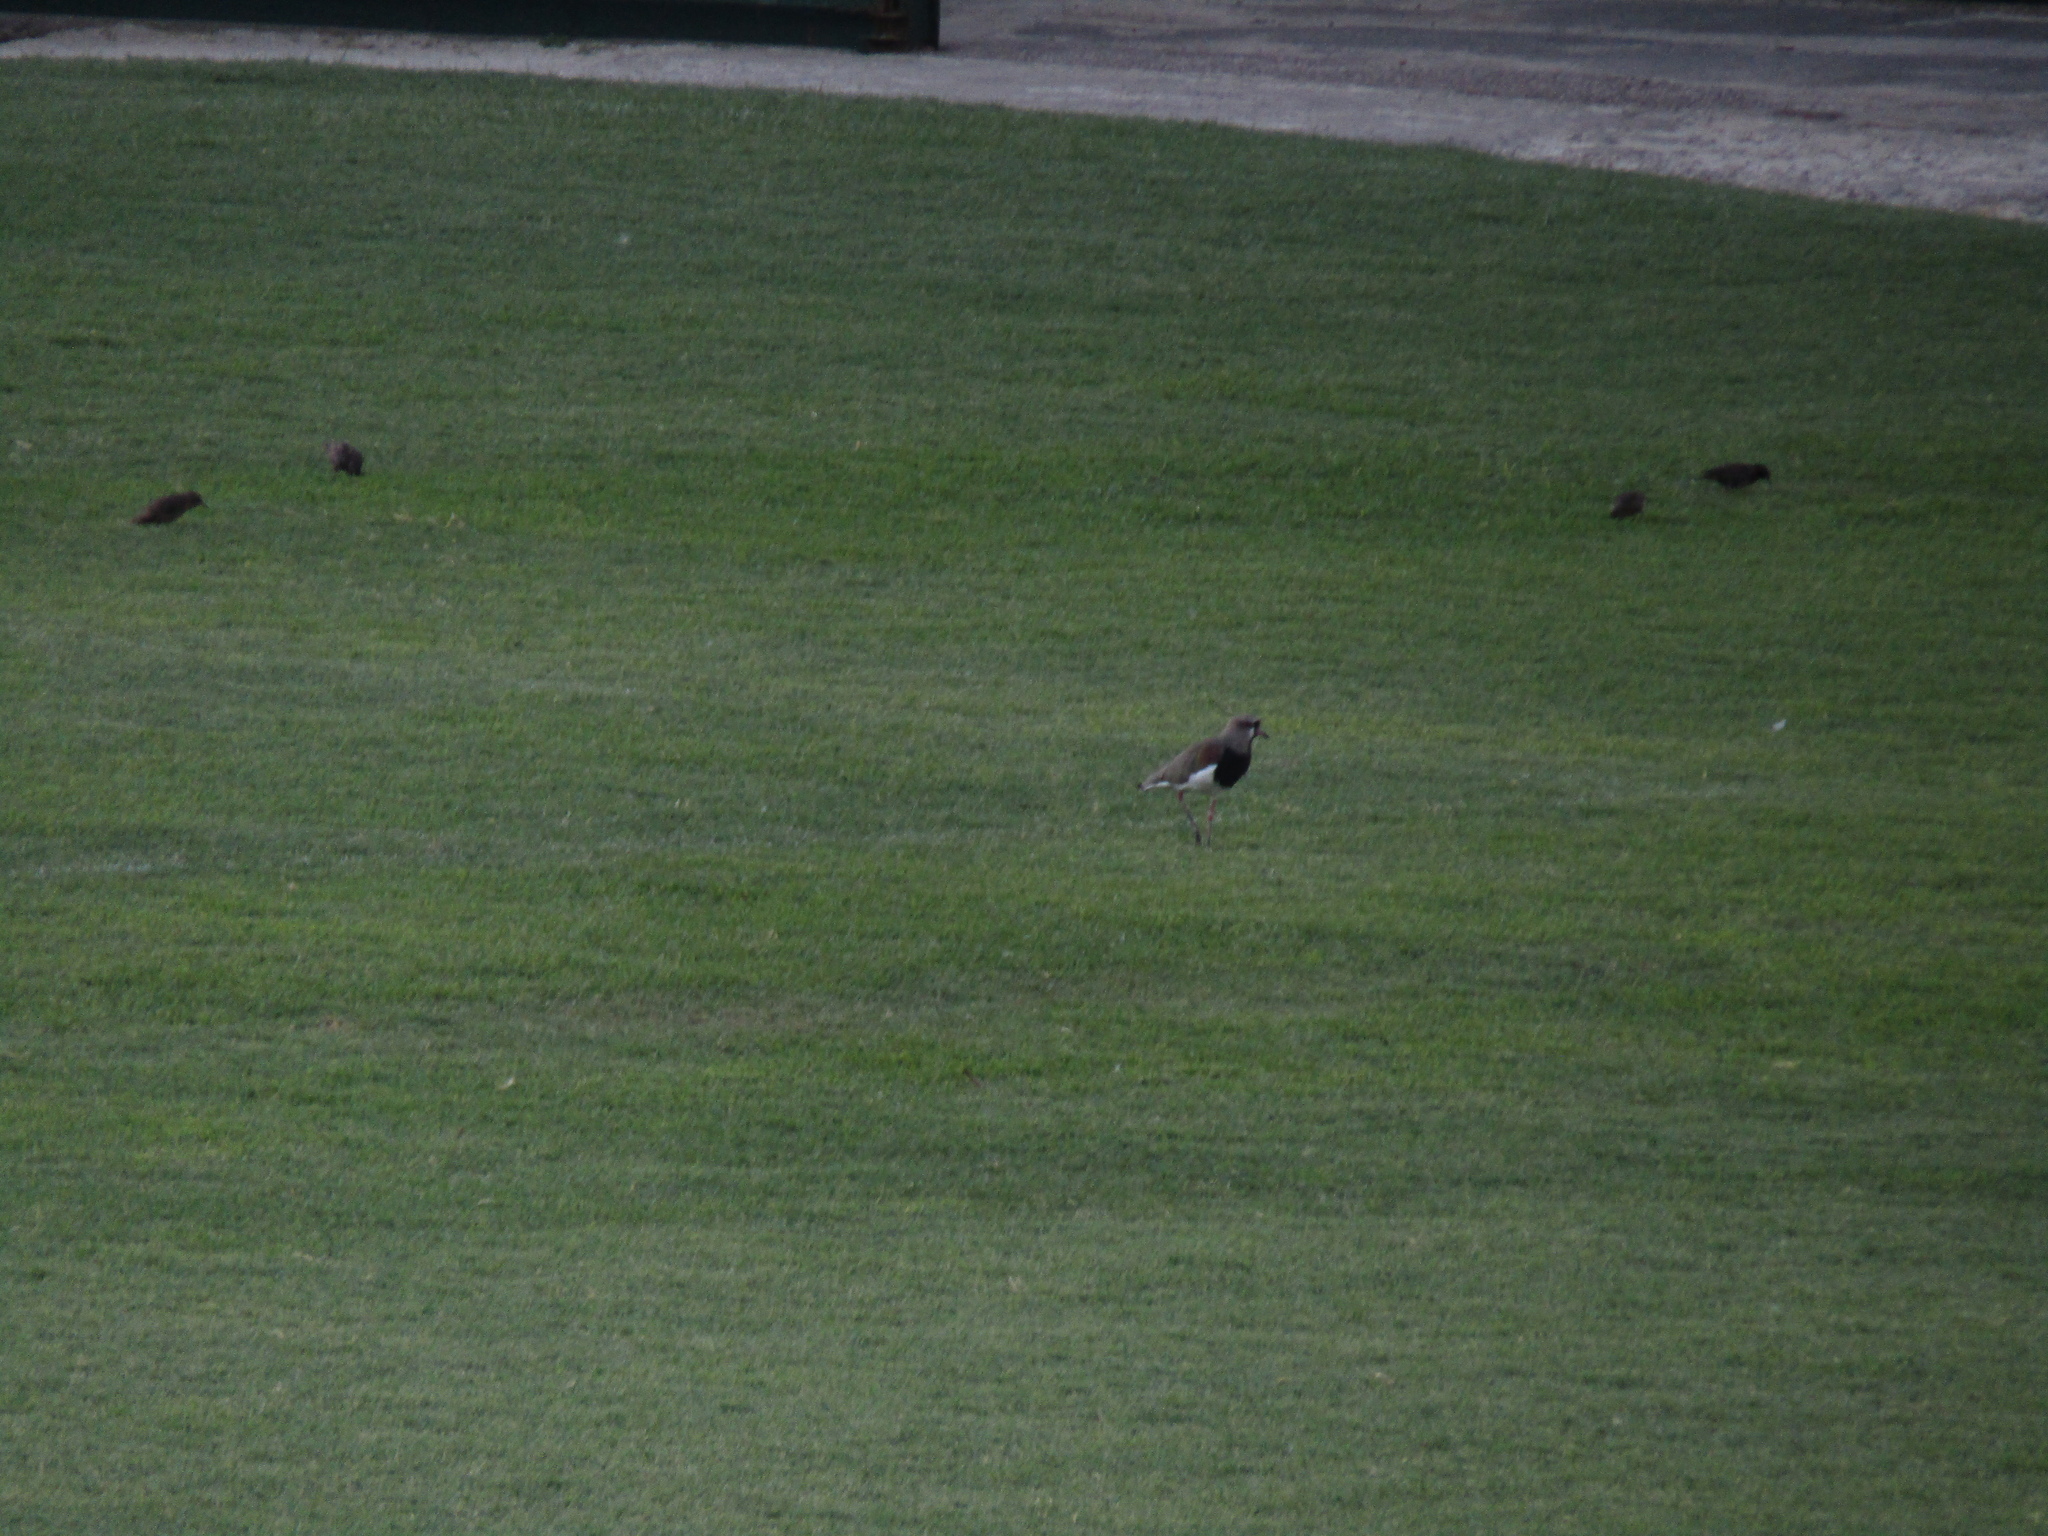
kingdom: Animalia
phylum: Chordata
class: Aves
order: Charadriiformes
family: Charadriidae
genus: Vanellus
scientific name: Vanellus chilensis
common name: Southern lapwing
